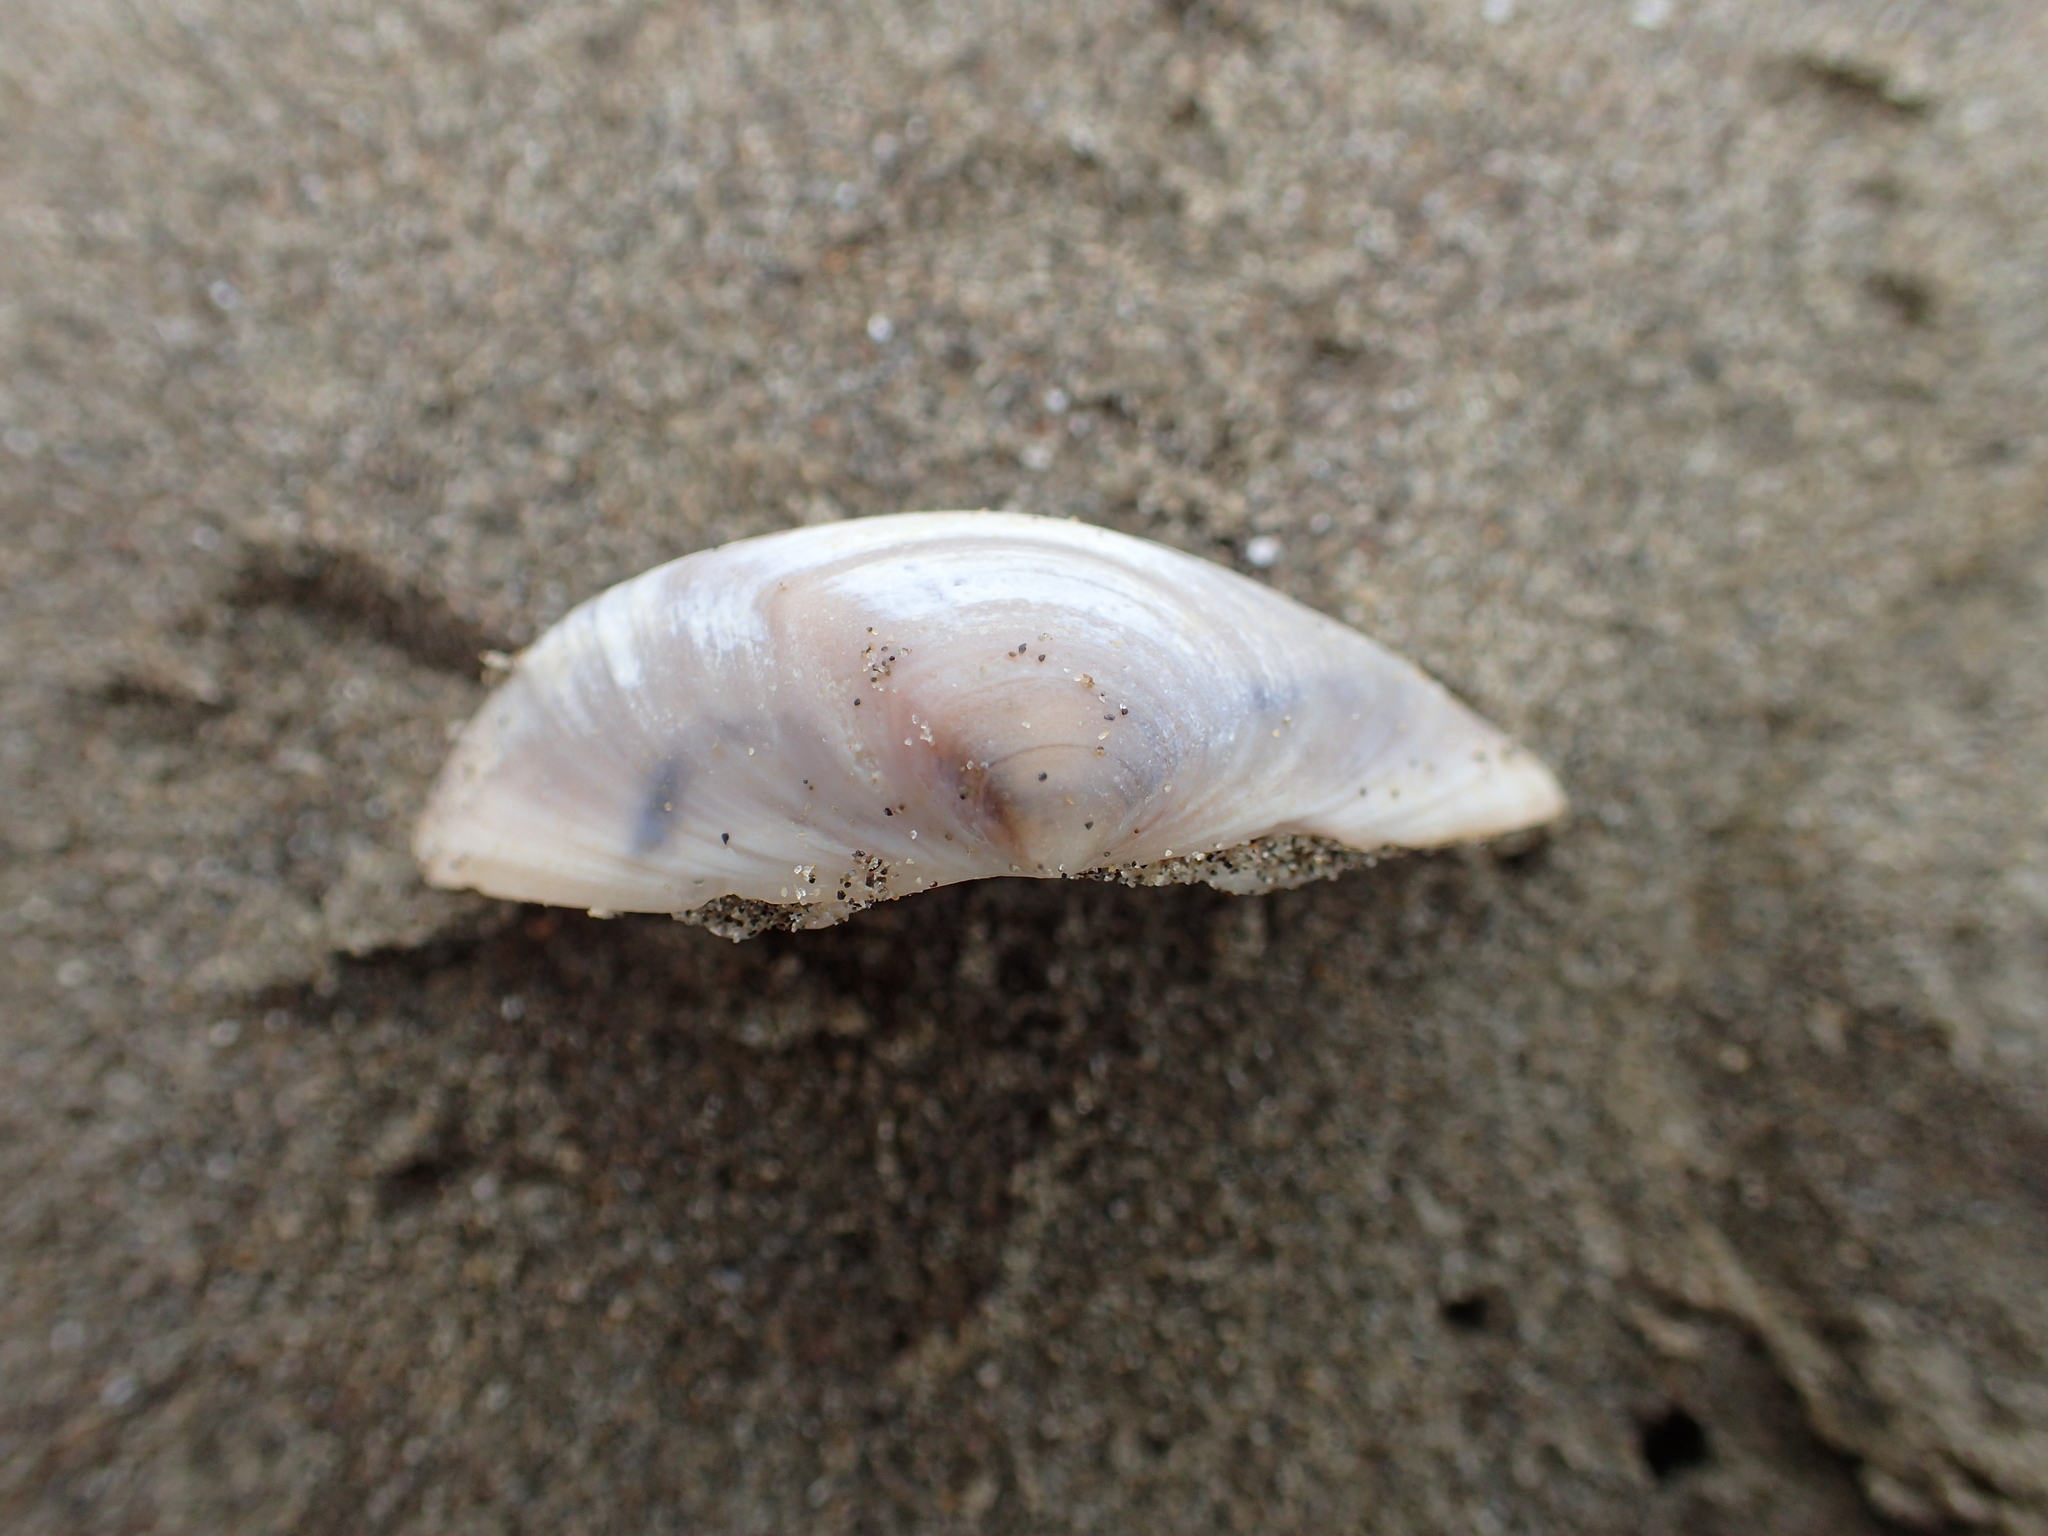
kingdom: Animalia
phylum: Mollusca
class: Bivalvia
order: Venerida
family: Mactridae
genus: Crassula
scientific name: Crassula aequilatera
